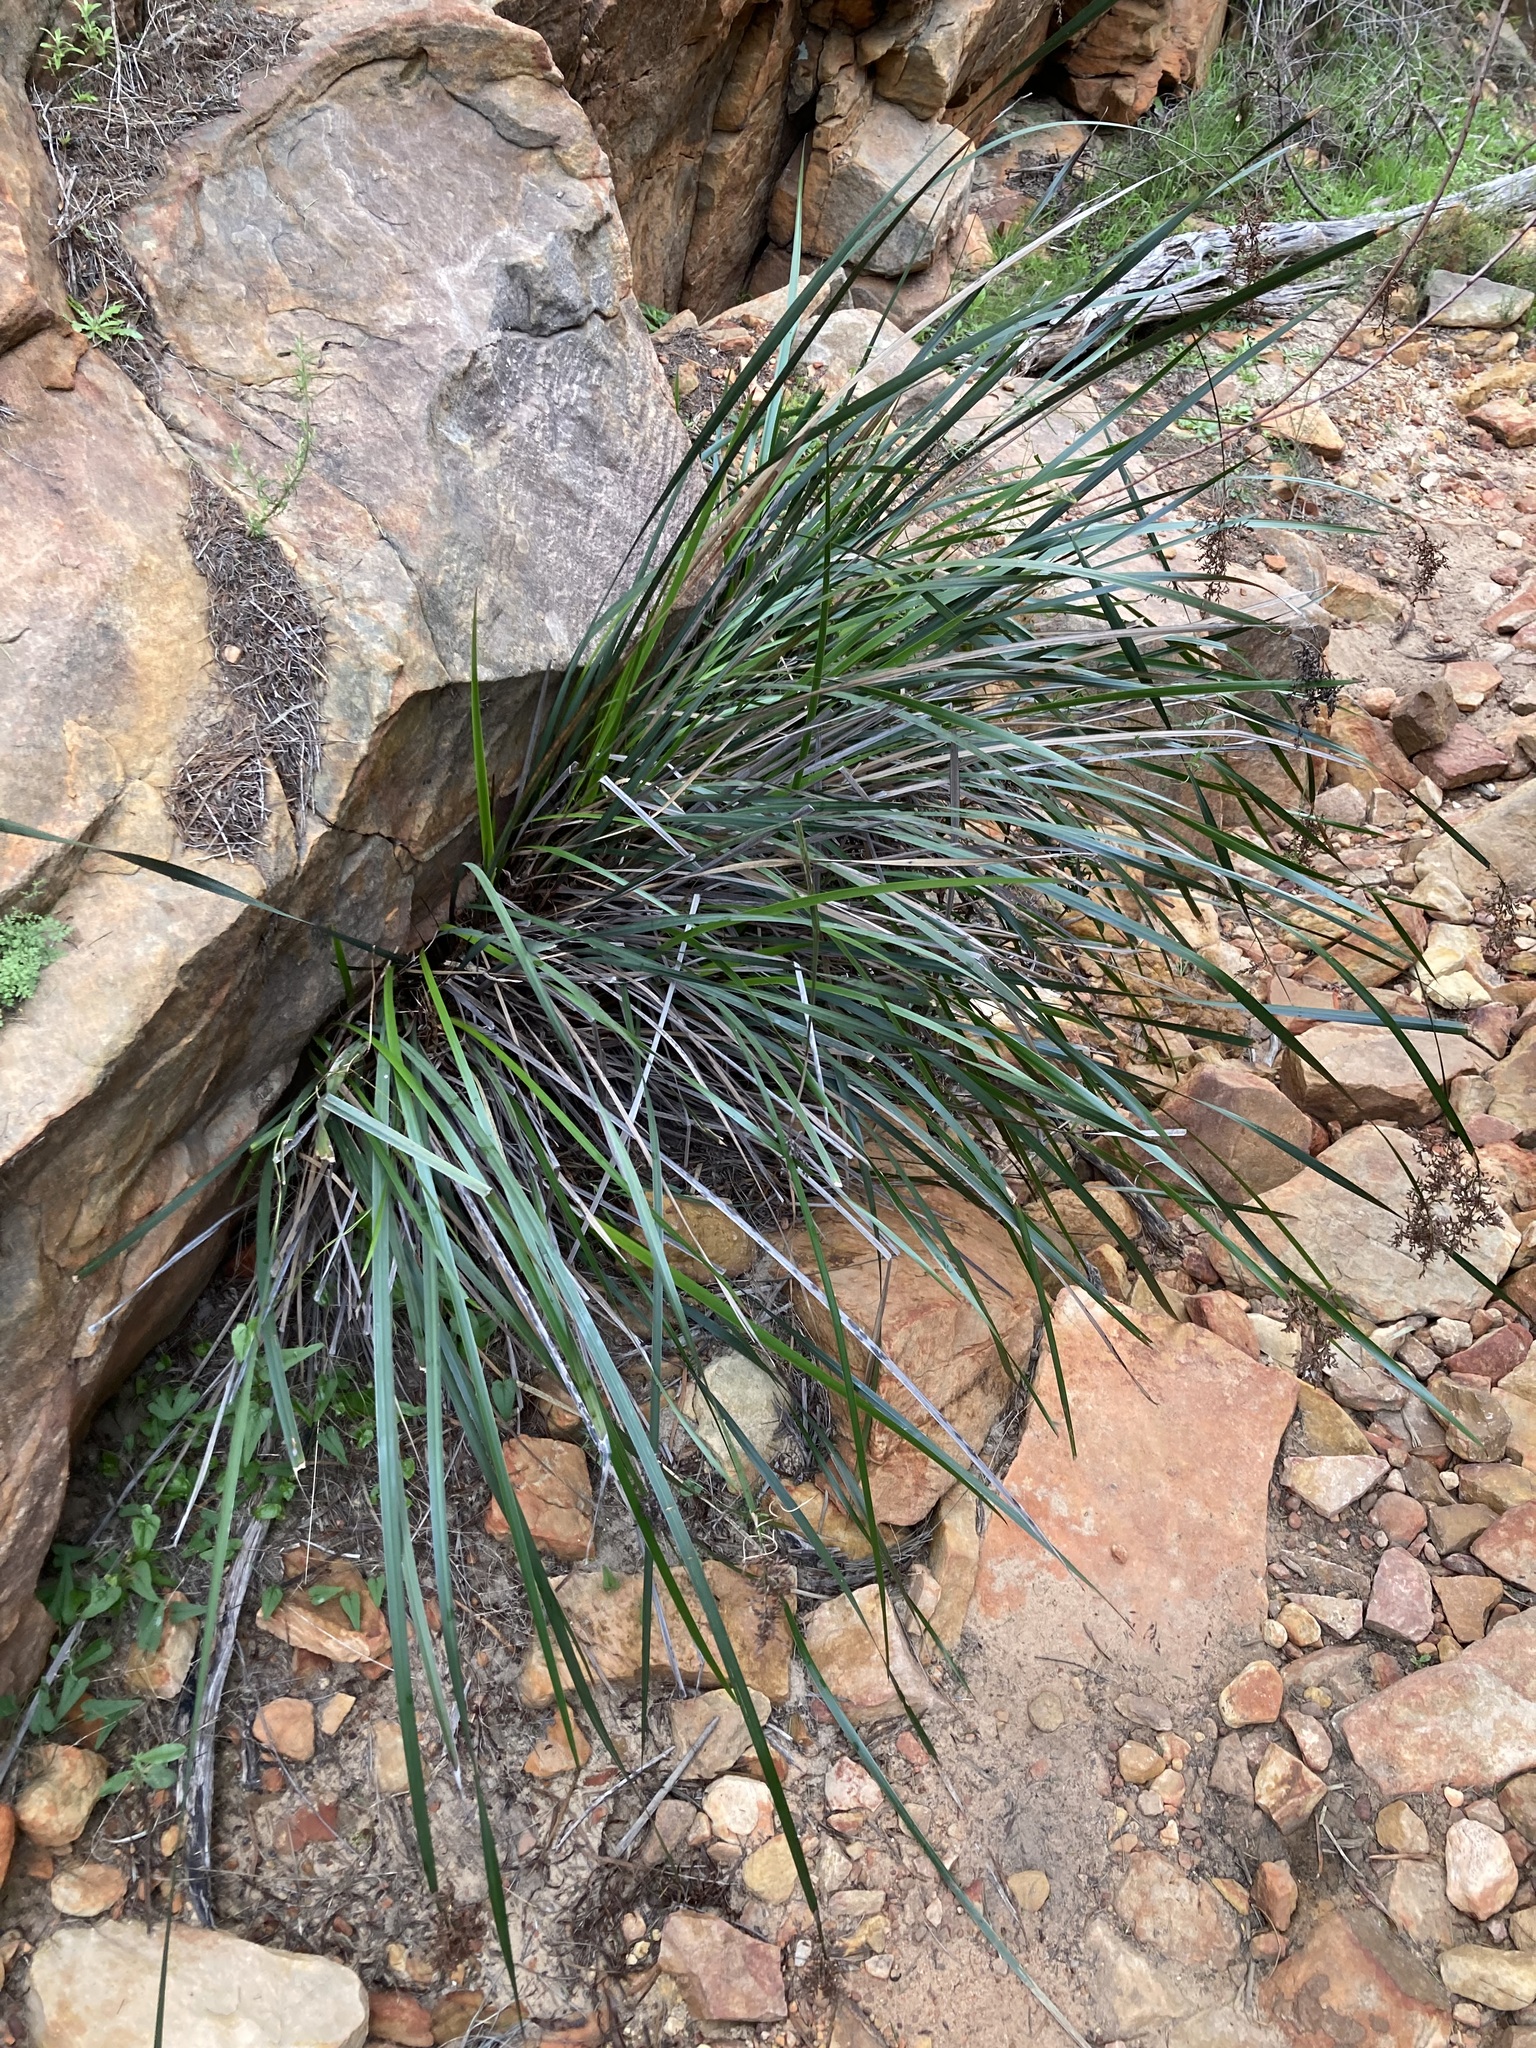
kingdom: Plantae
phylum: Tracheophyta
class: Liliopsida
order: Poales
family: Cyperaceae
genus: Lepidosperma
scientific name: Lepidosperma rupestre
